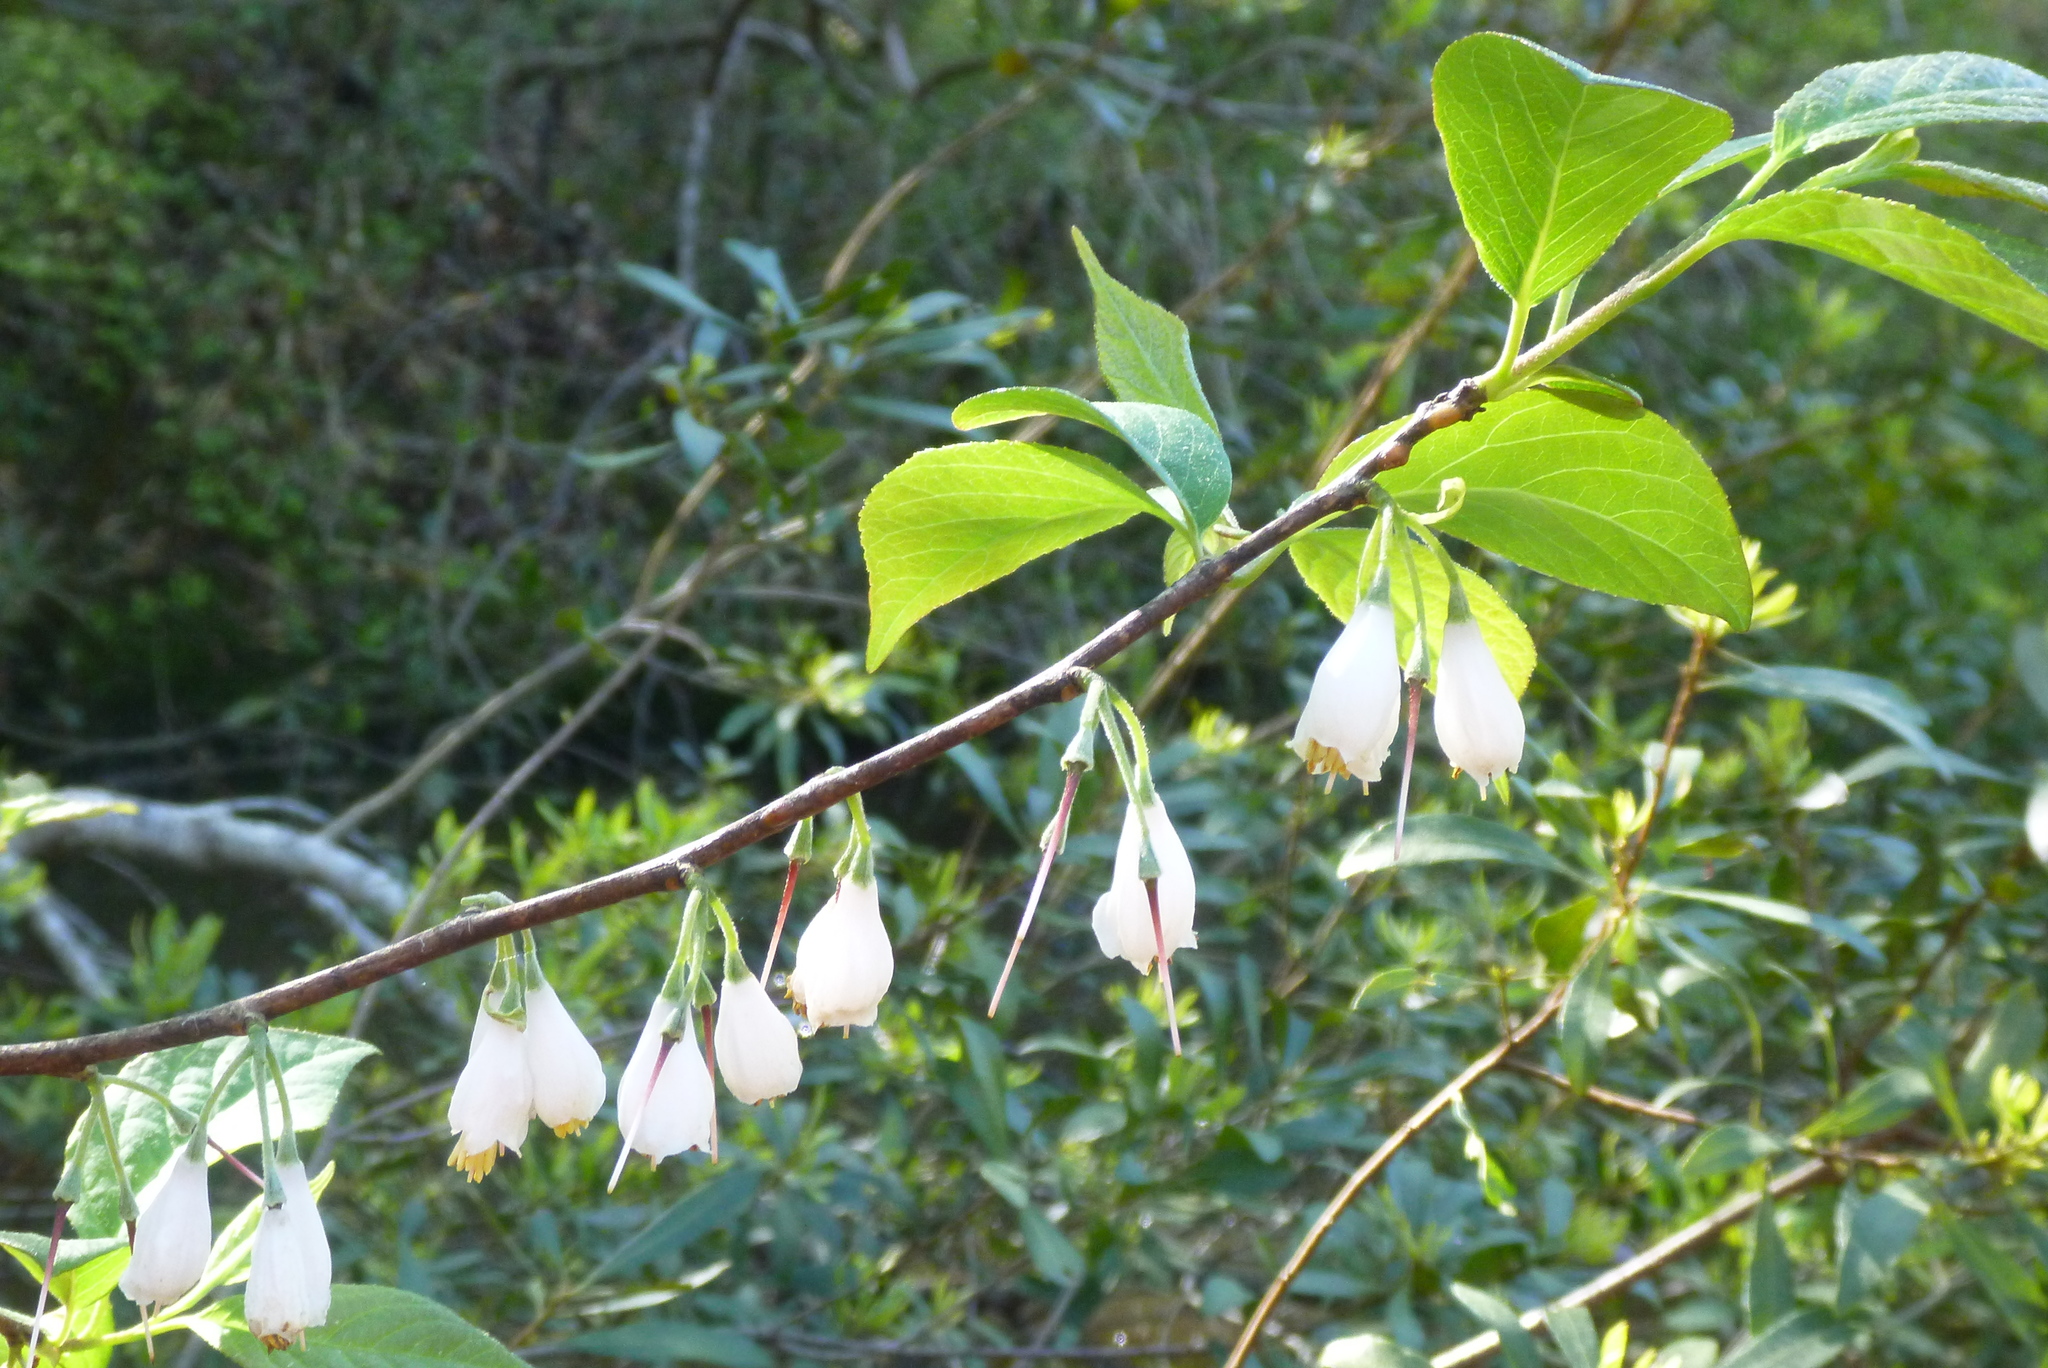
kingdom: Plantae
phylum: Tracheophyta
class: Magnoliopsida
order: Ericales
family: Styracaceae
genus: Halesia
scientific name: Halesia carolina
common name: Carolina silverbell
